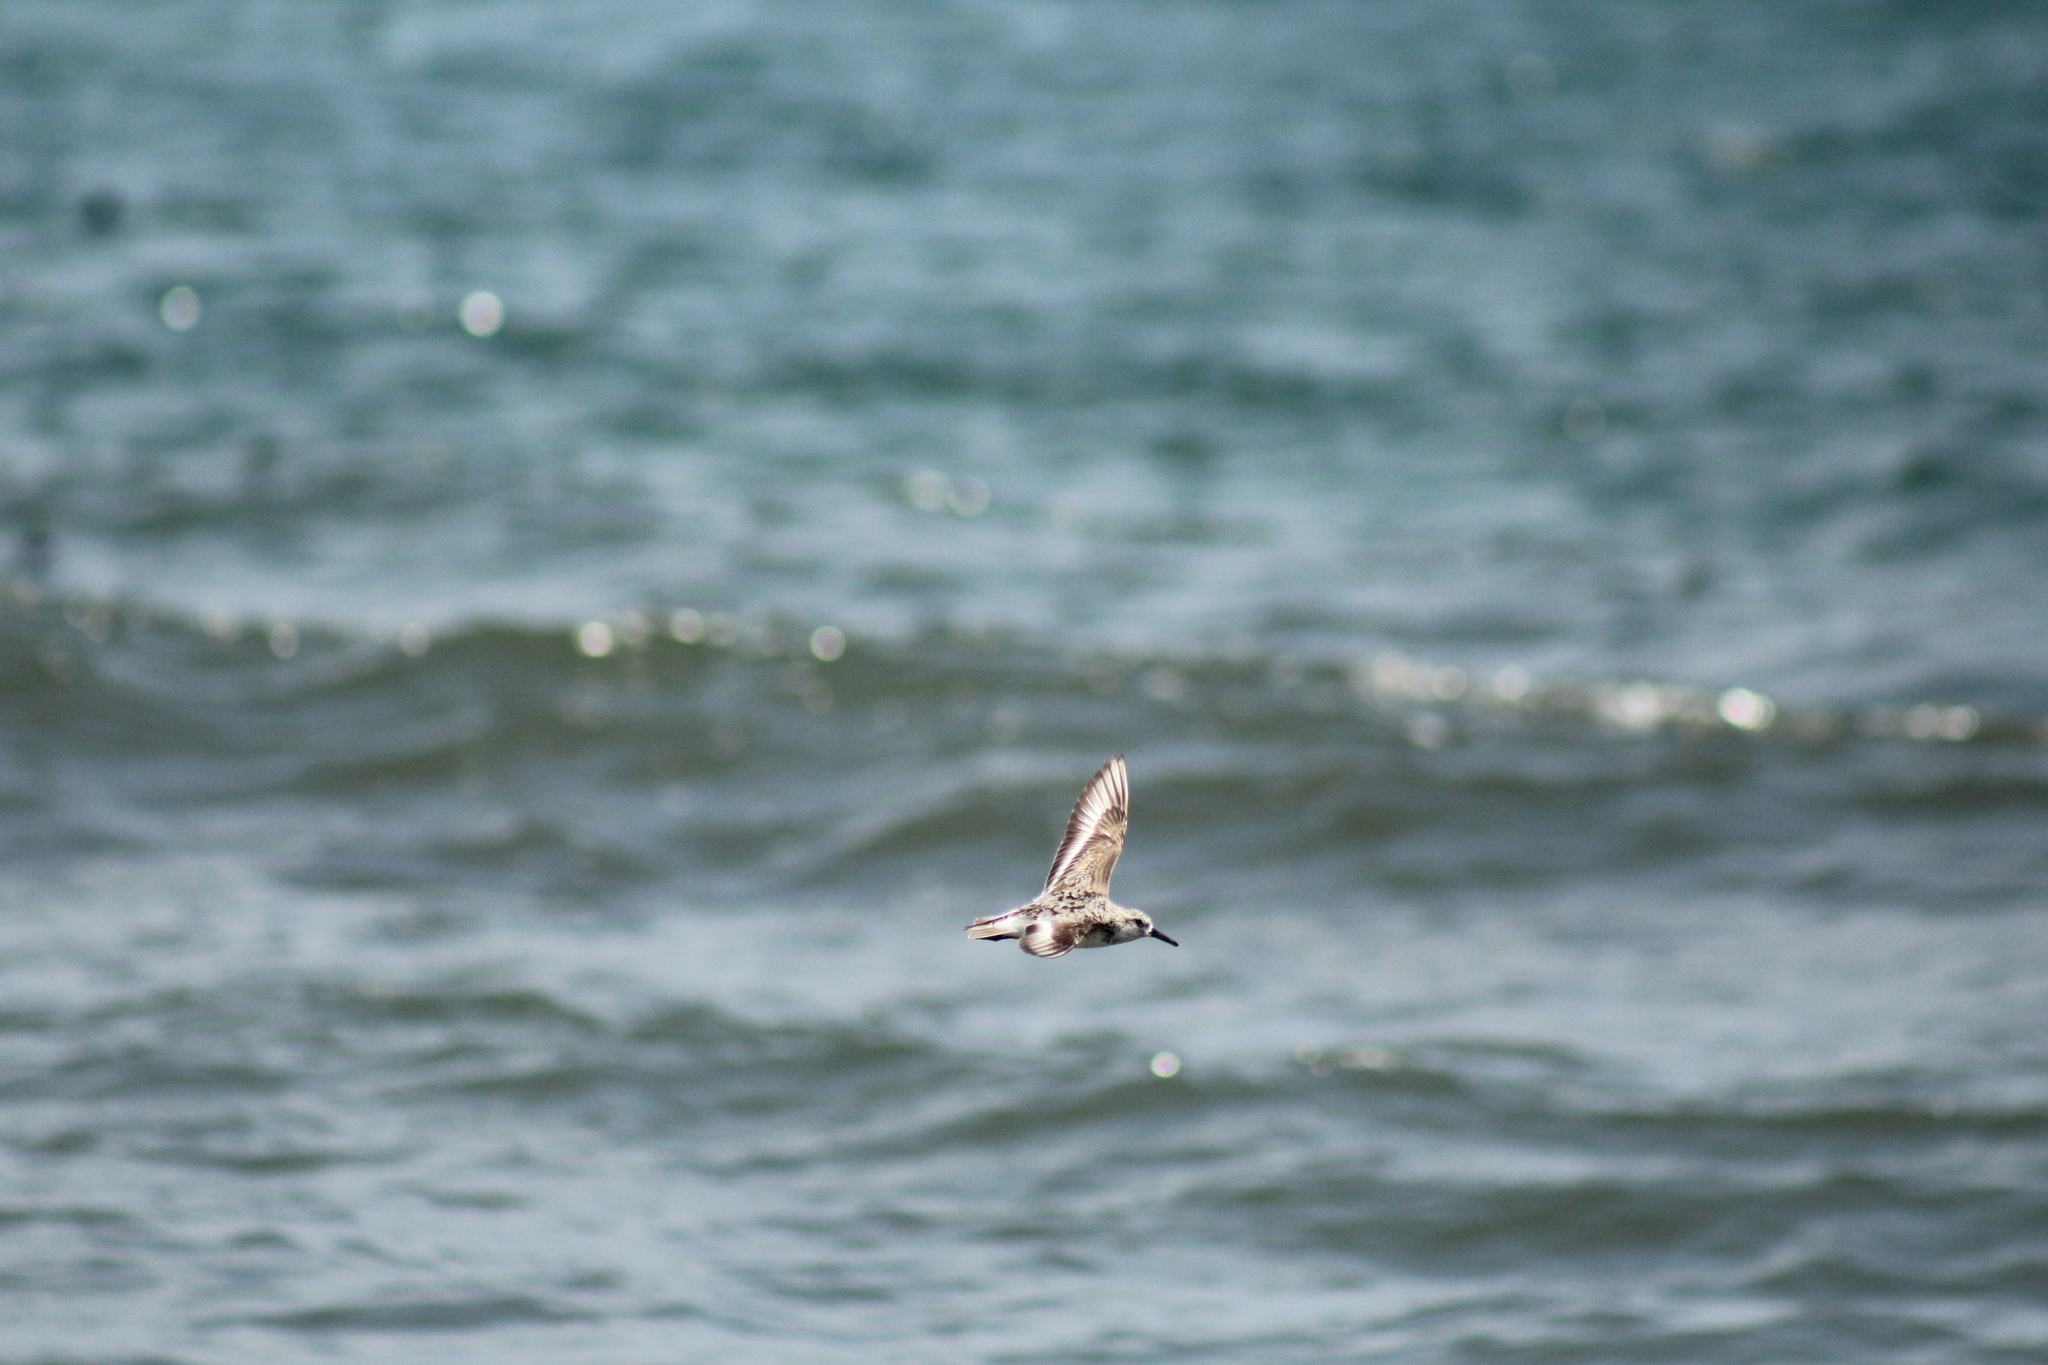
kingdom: Animalia
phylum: Chordata
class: Aves
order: Charadriiformes
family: Scolopacidae
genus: Calidris
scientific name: Calidris alba
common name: Sanderling
